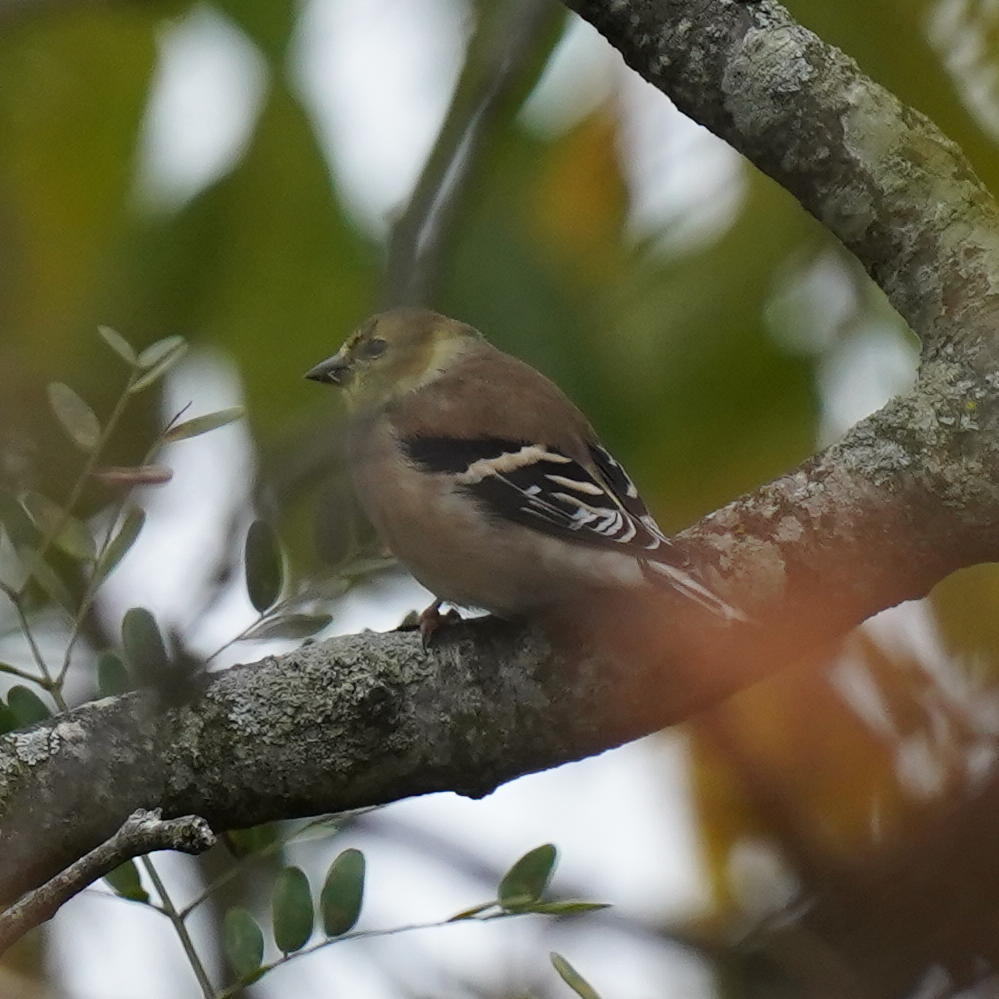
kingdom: Animalia
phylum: Chordata
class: Aves
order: Passeriformes
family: Fringillidae
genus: Spinus
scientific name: Spinus tristis
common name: American goldfinch
